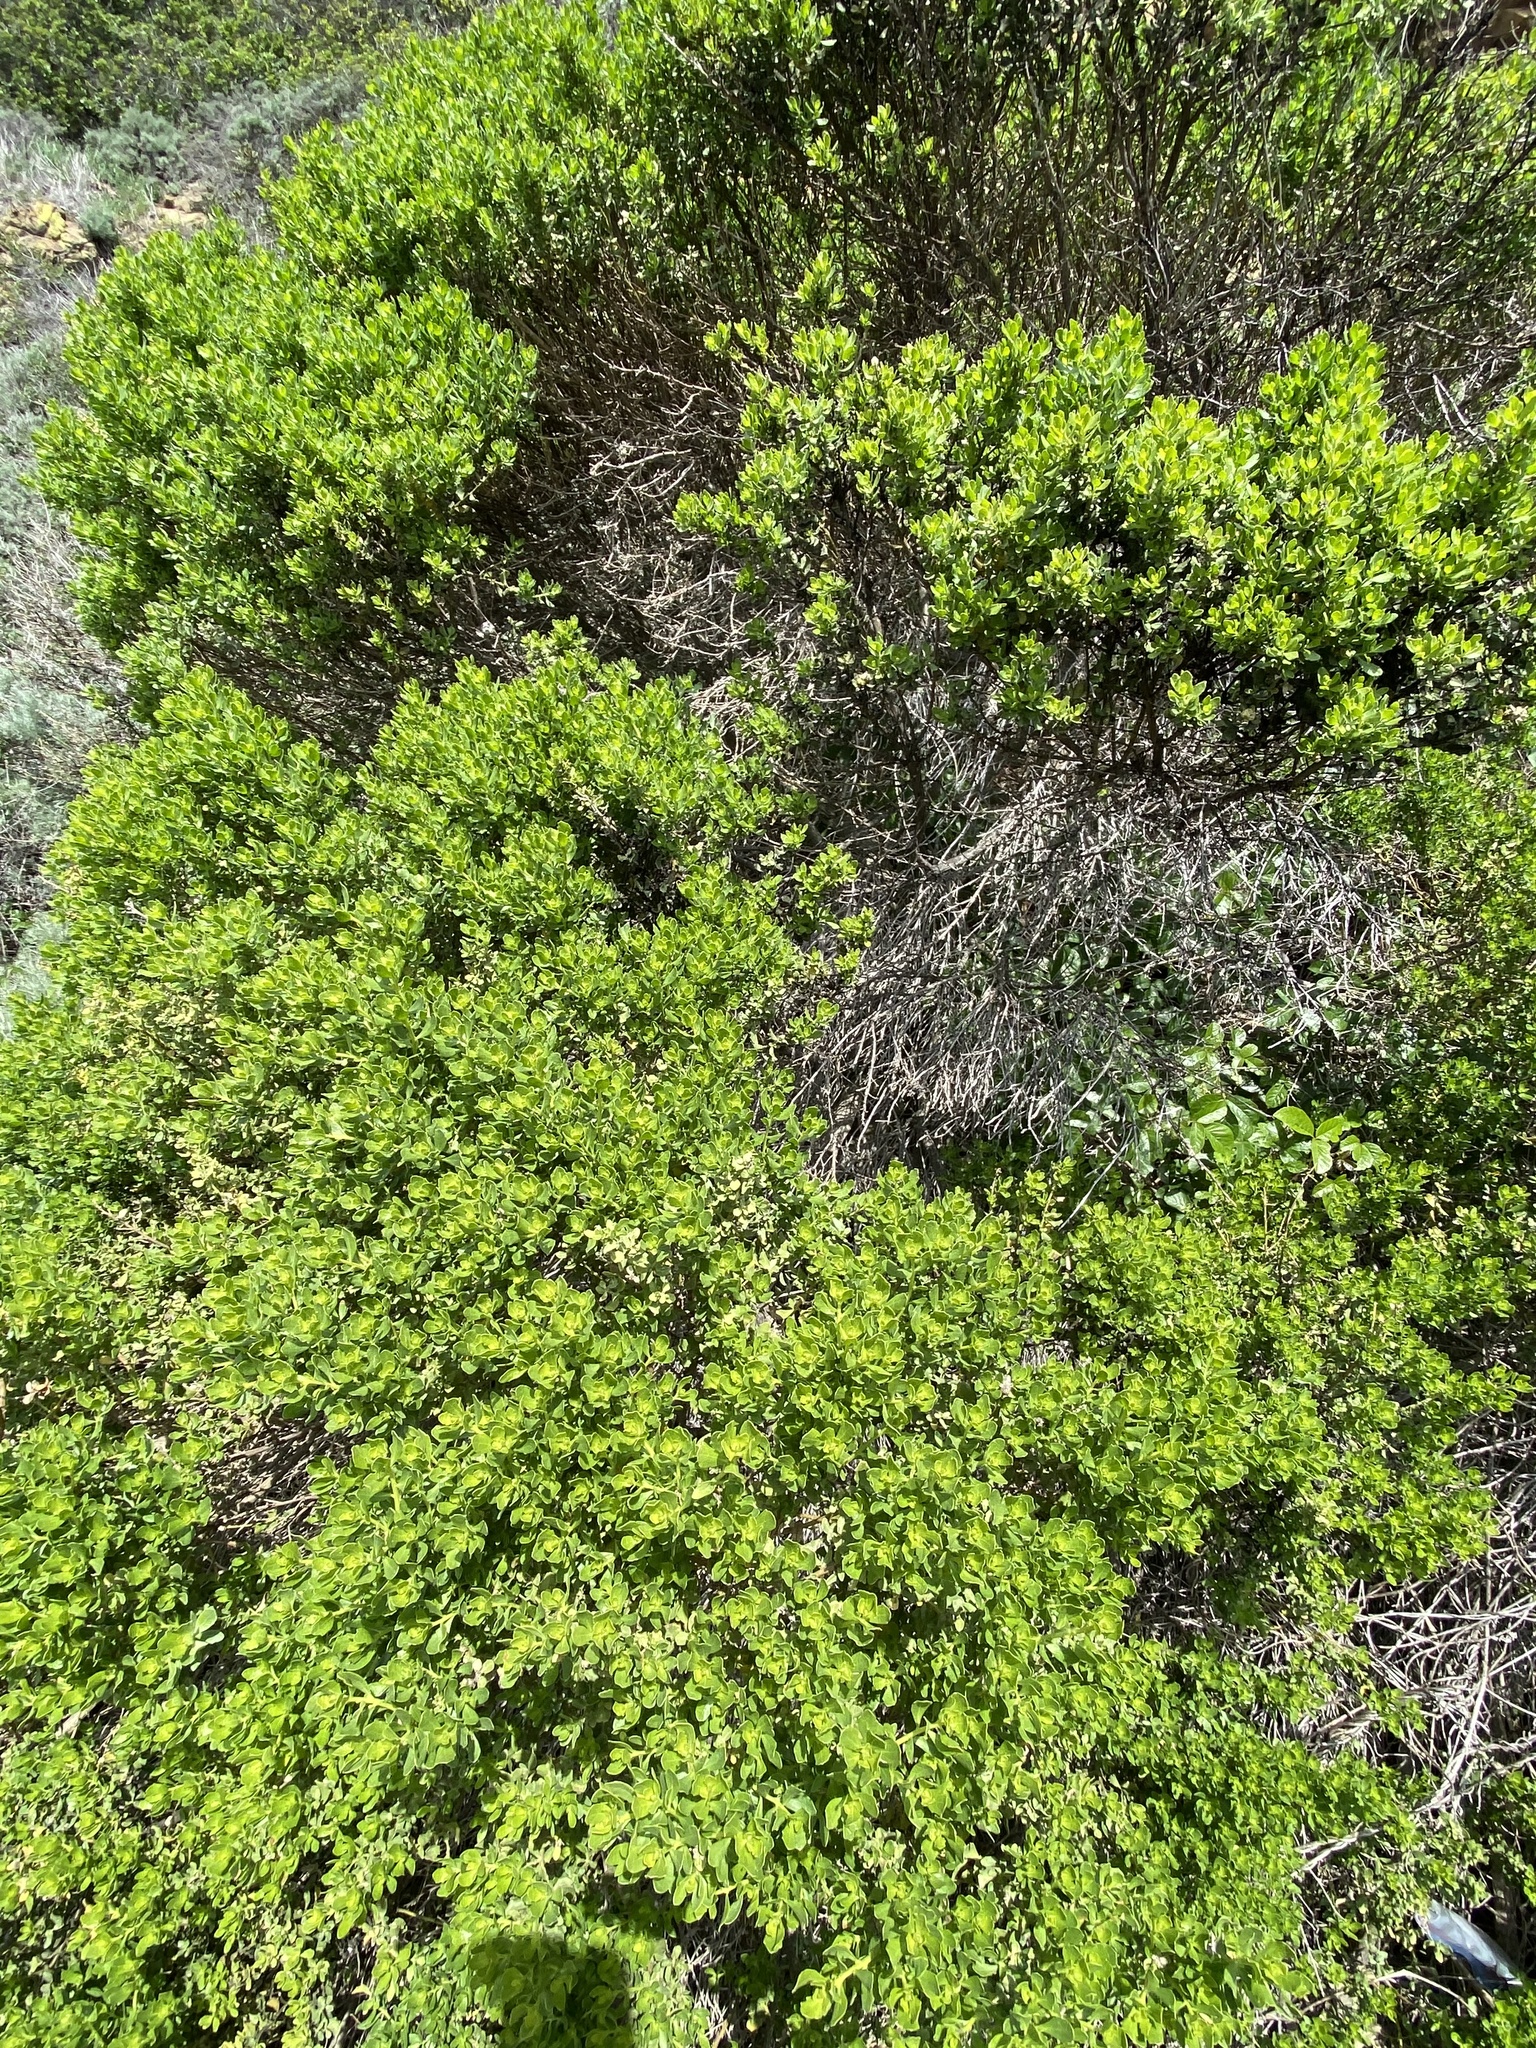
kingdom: Plantae
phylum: Tracheophyta
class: Magnoliopsida
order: Asterales
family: Asteraceae
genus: Baccharis
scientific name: Baccharis pilularis
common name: Coyotebrush
